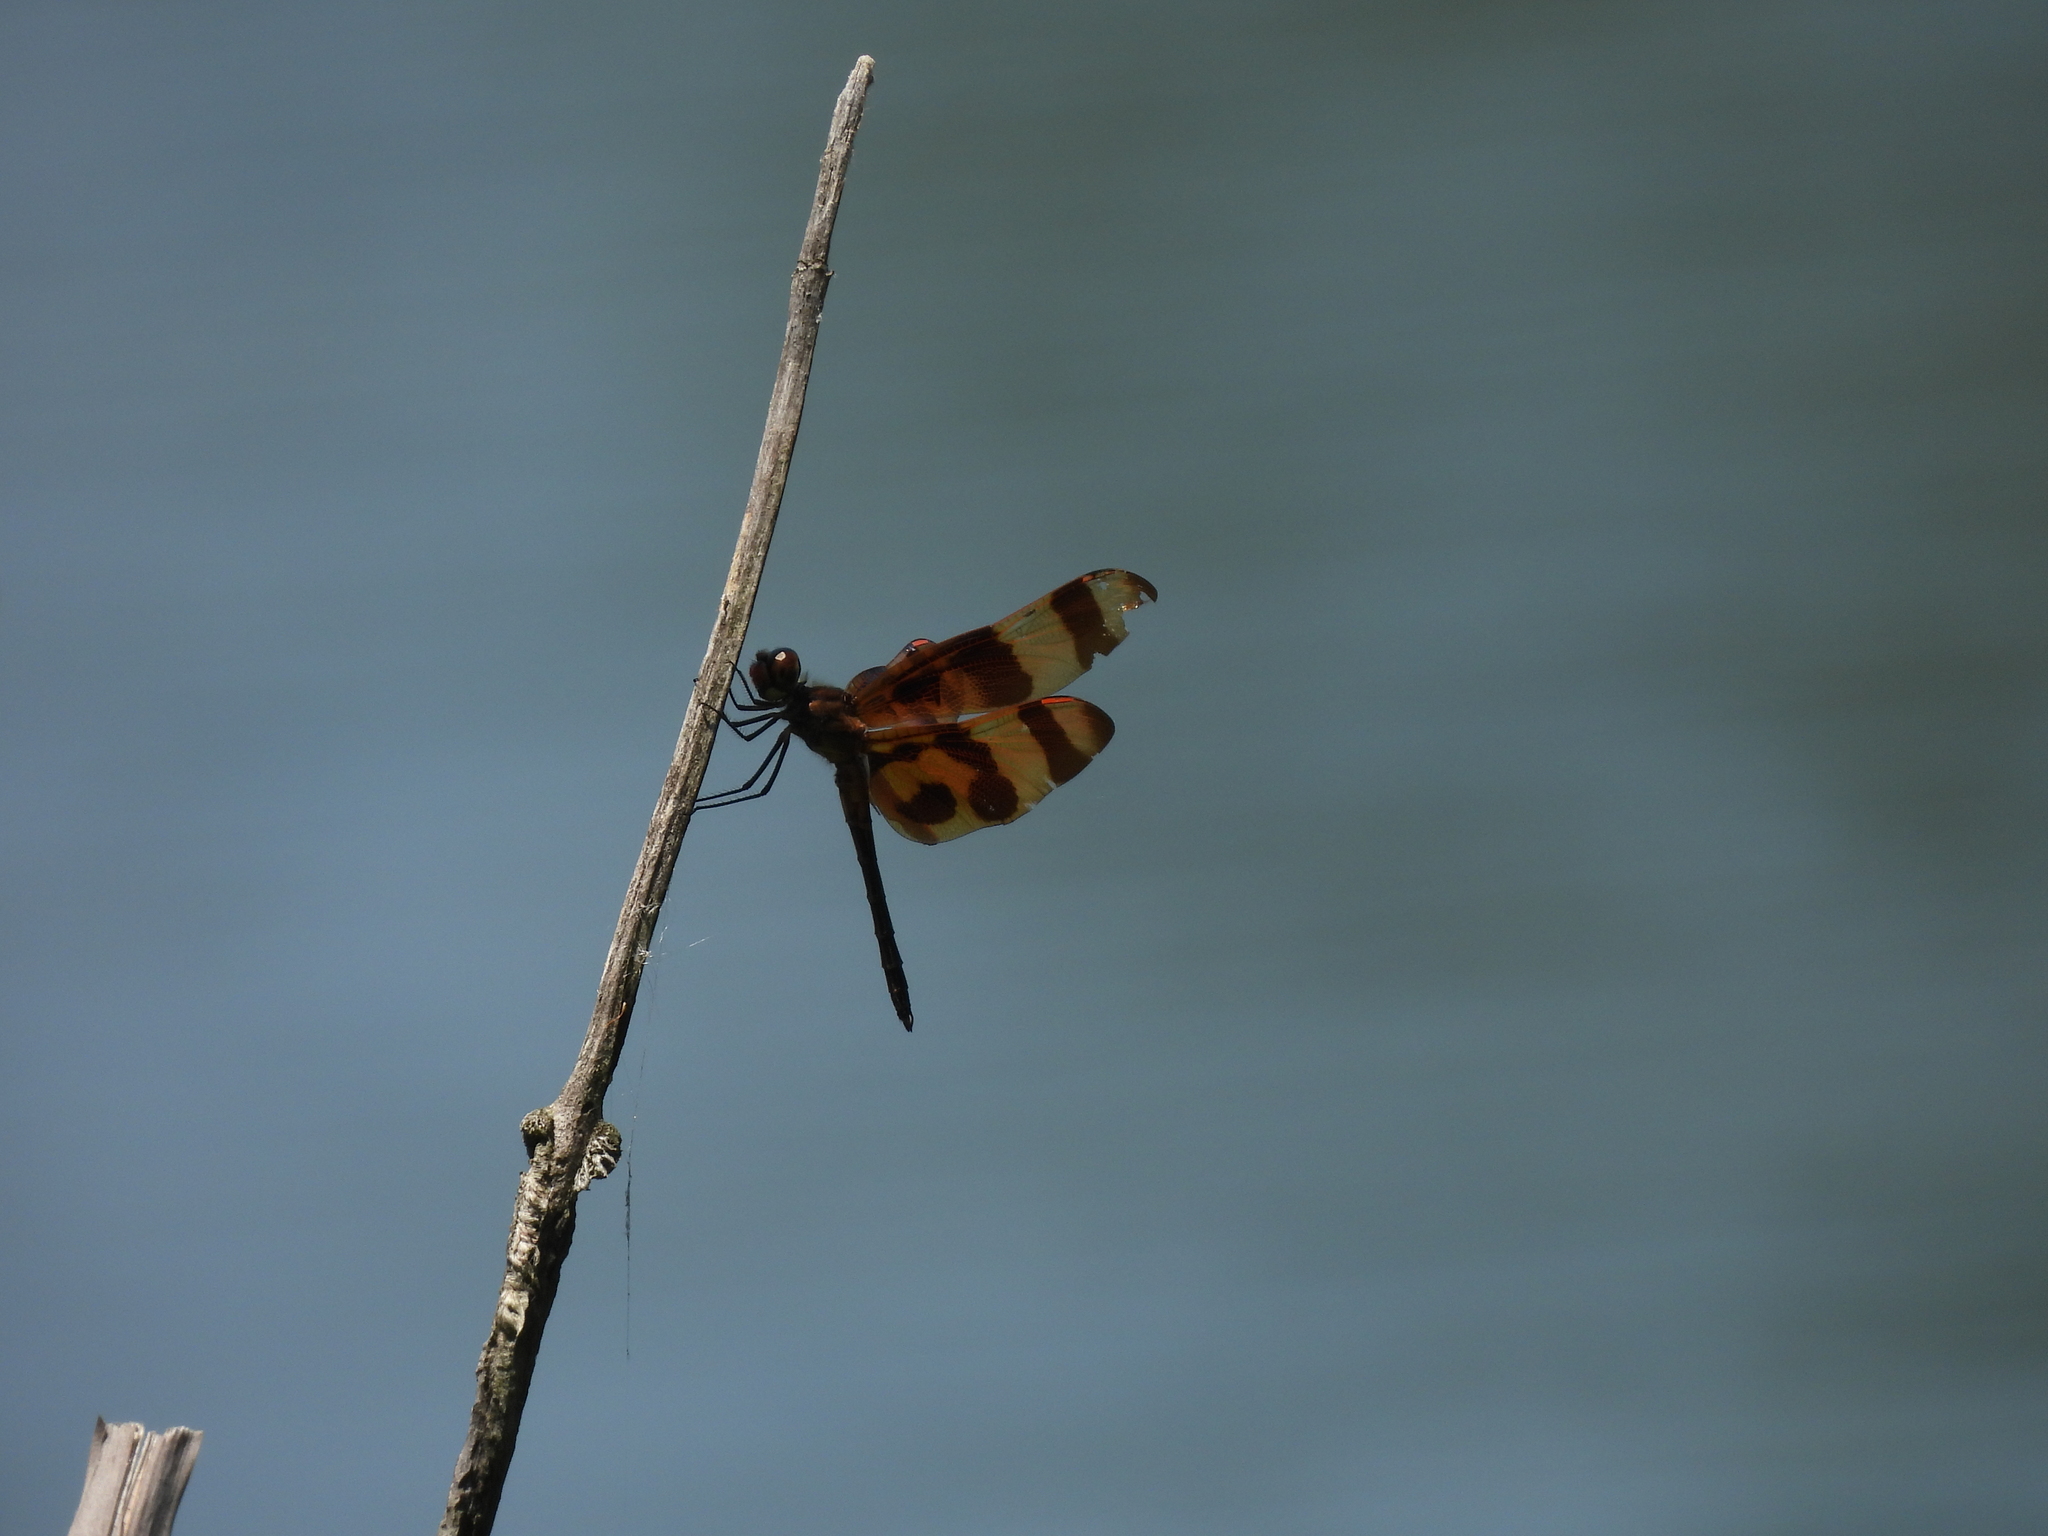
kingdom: Animalia
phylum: Arthropoda
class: Insecta
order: Odonata
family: Libellulidae
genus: Celithemis
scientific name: Celithemis eponina
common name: Halloween pennant
